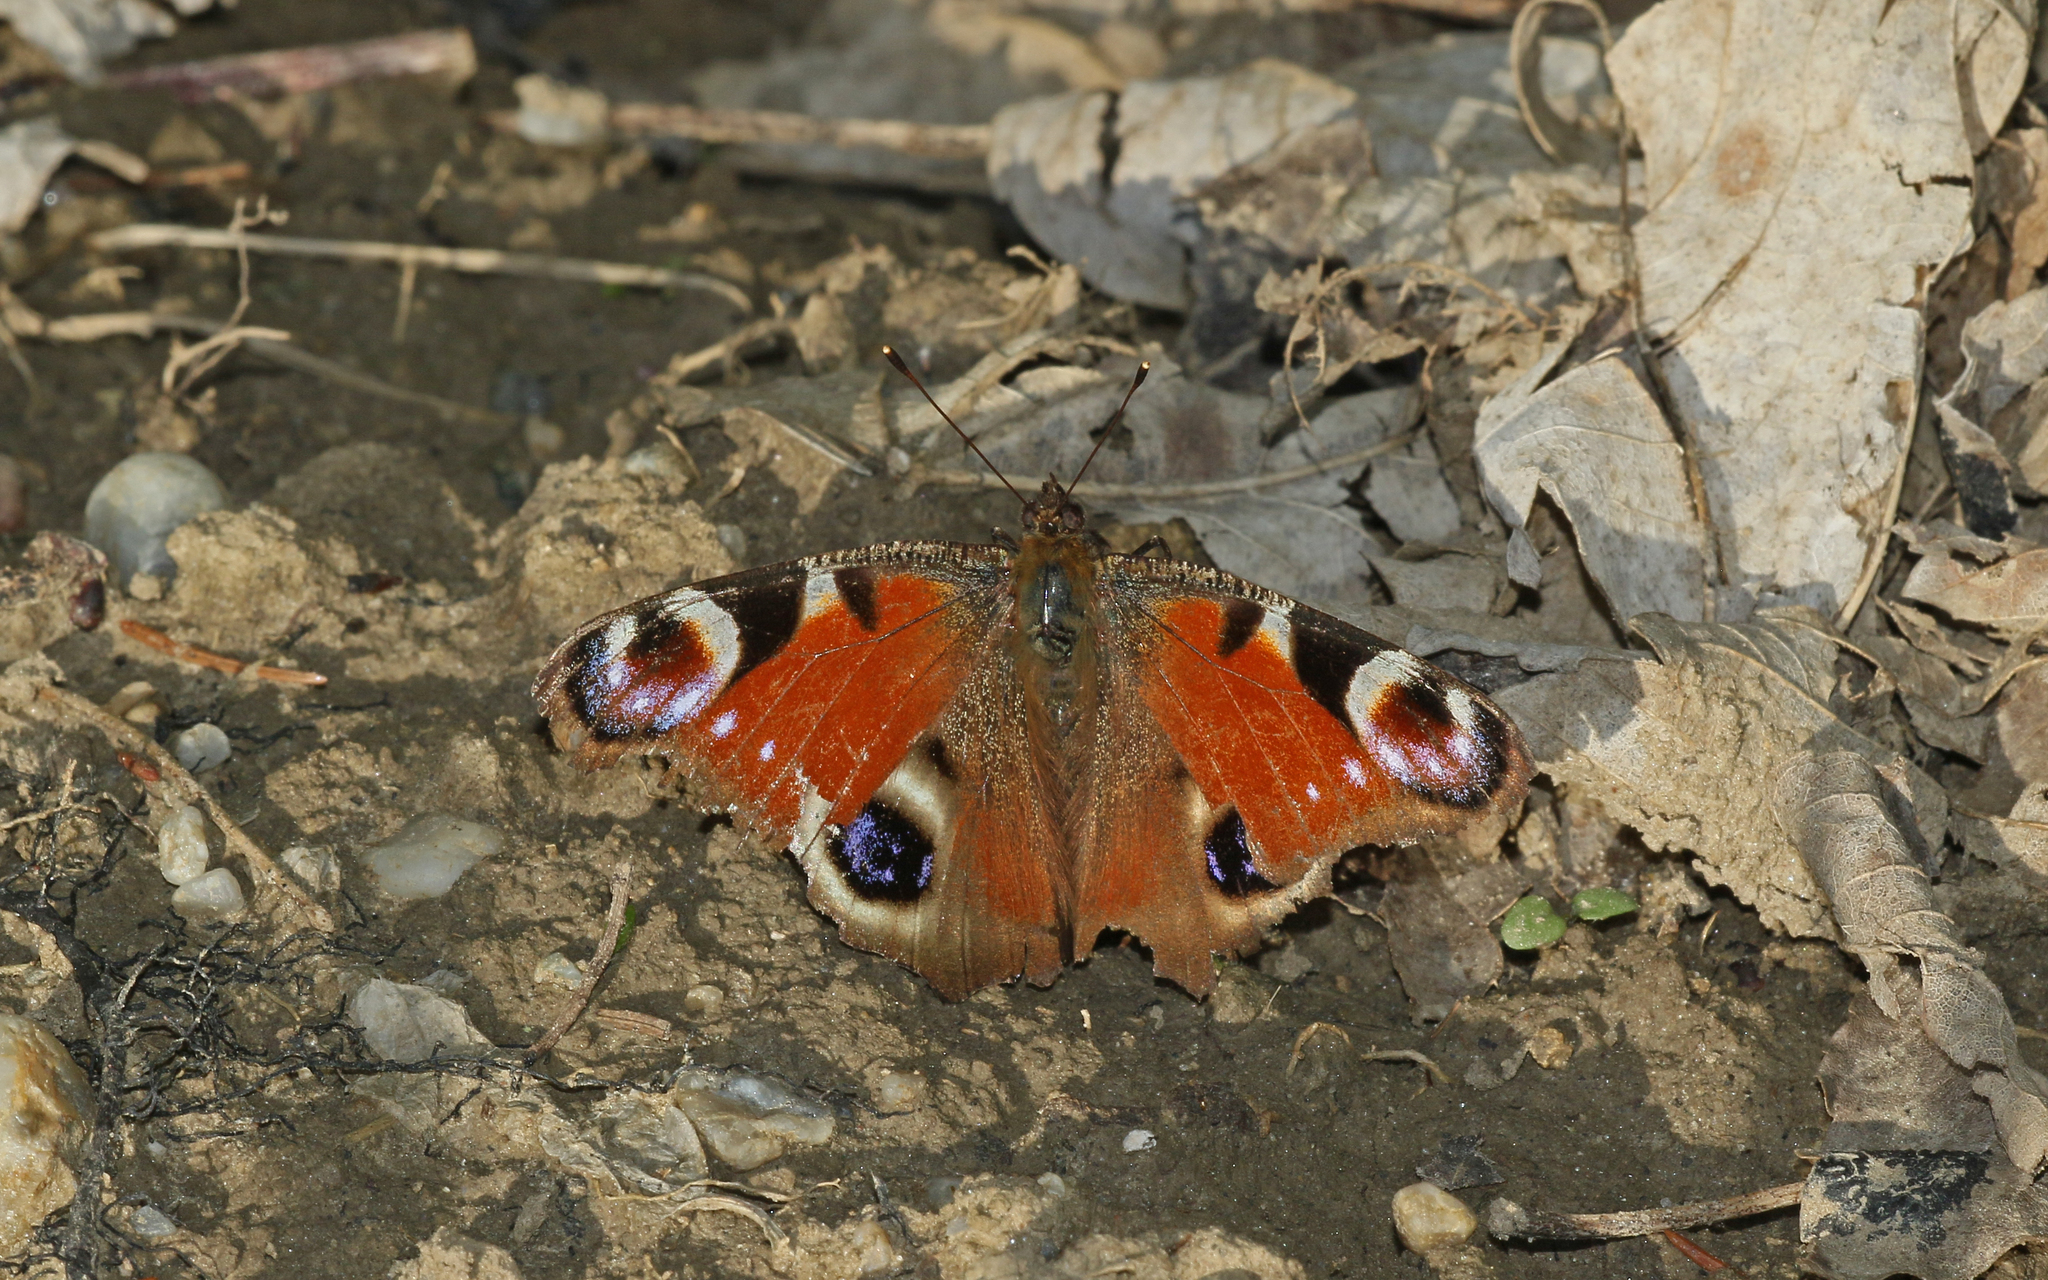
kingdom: Animalia
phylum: Arthropoda
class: Insecta
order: Lepidoptera
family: Nymphalidae
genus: Aglais
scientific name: Aglais io
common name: Peacock
